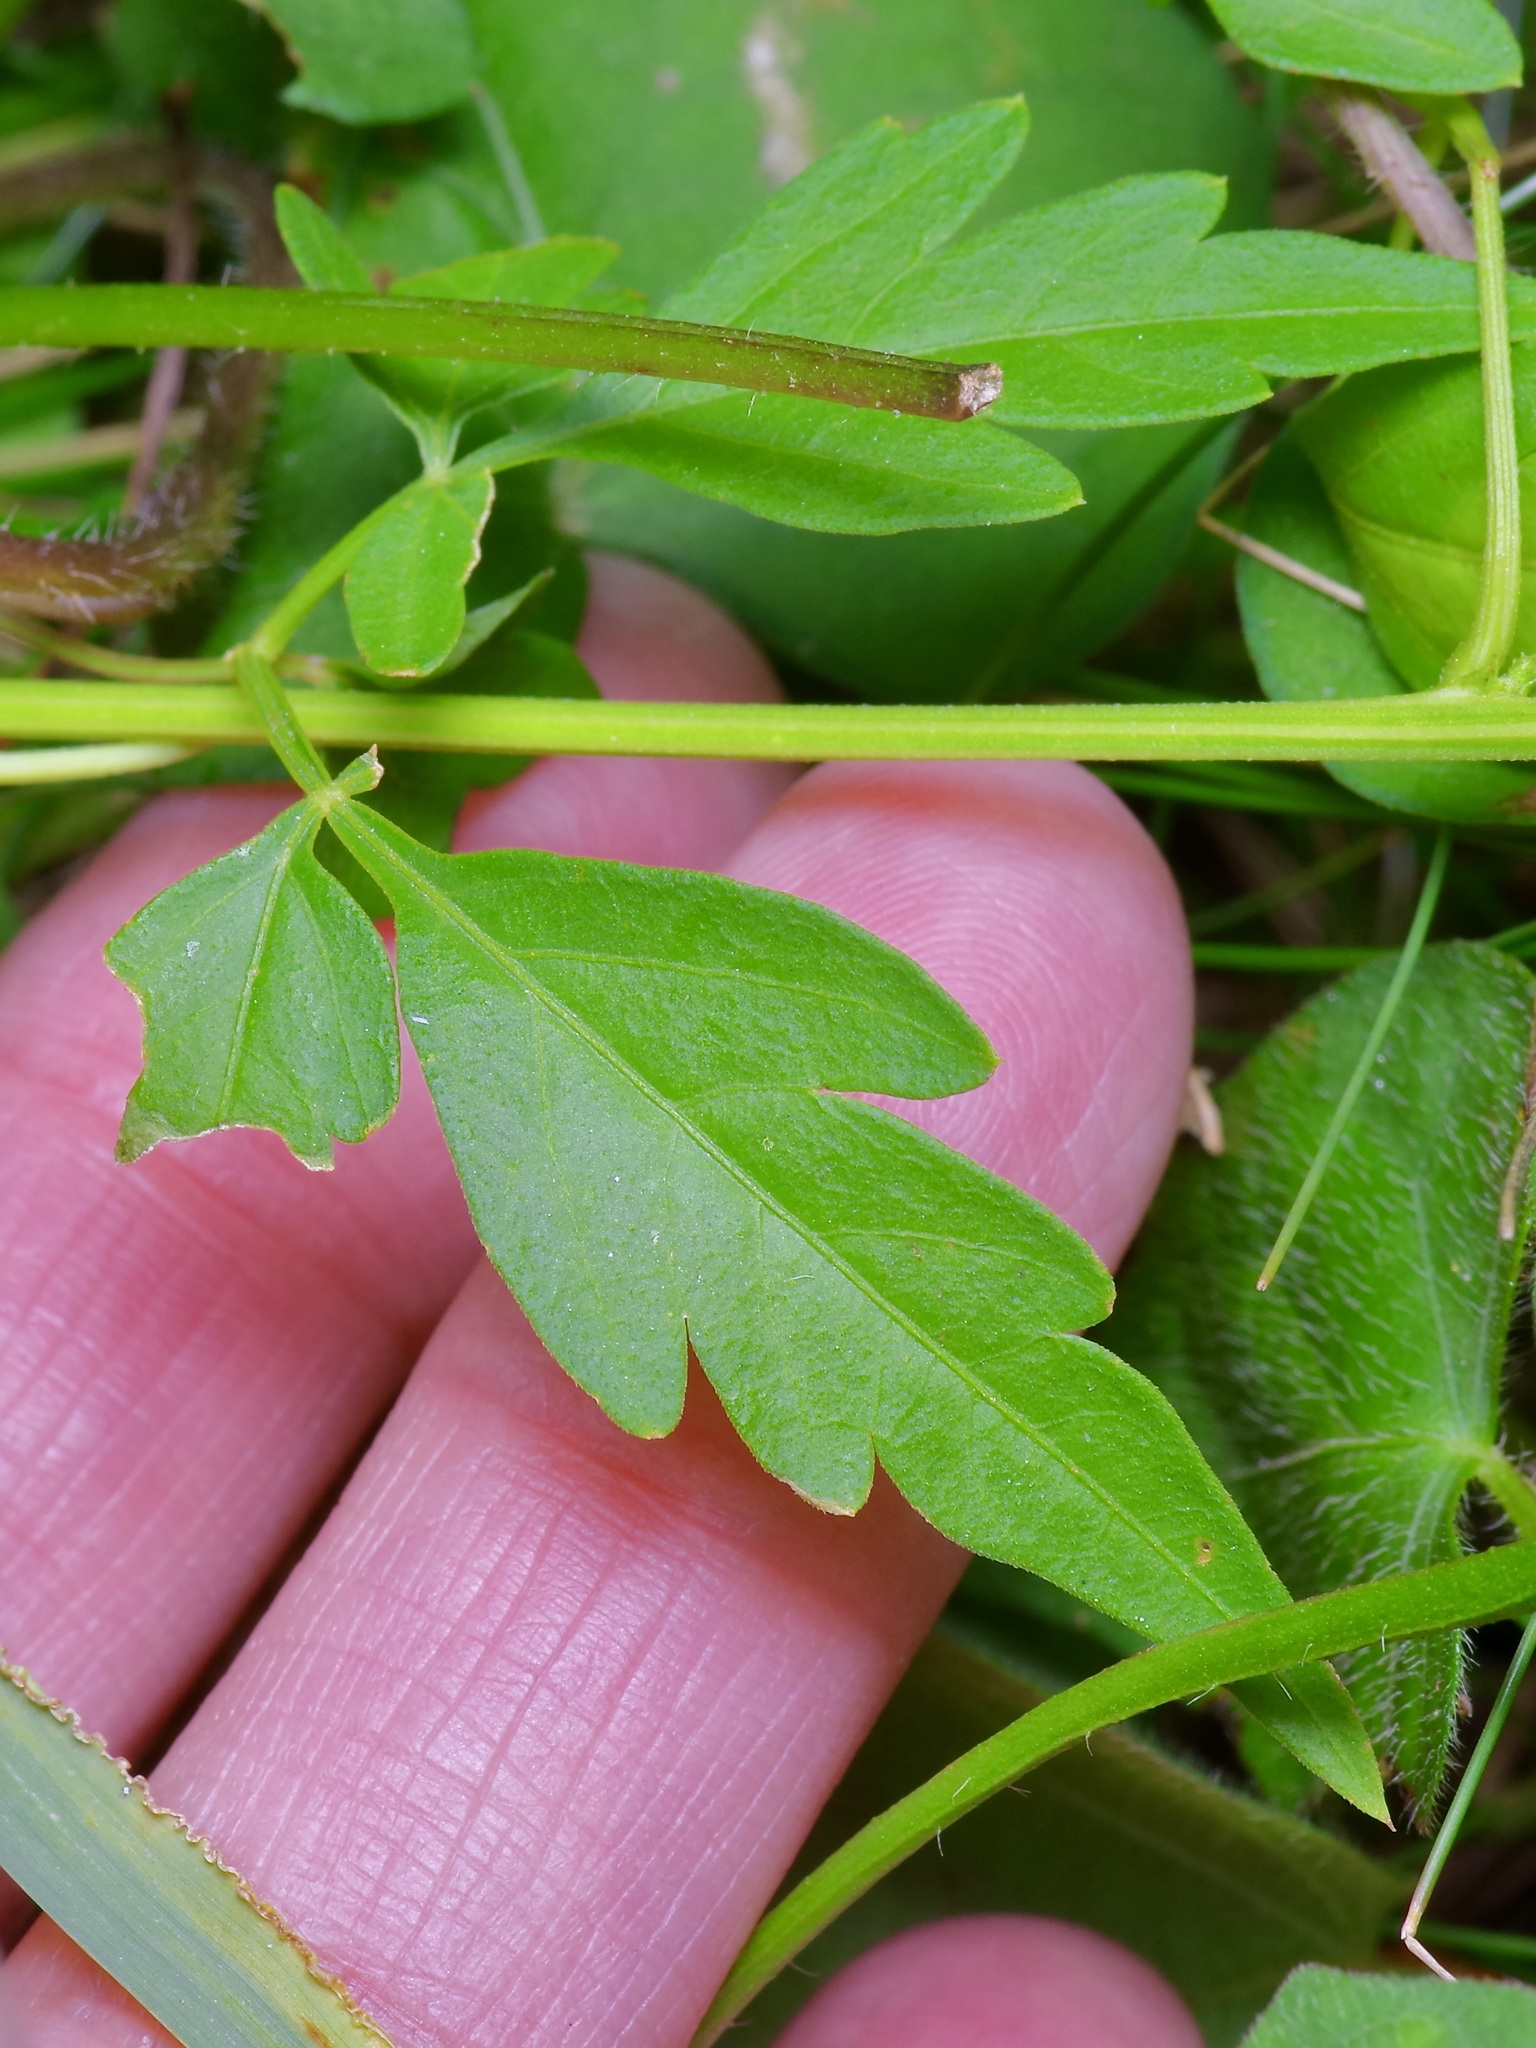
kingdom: Plantae
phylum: Tracheophyta
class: Magnoliopsida
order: Sapindales
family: Sapindaceae
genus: Cardiospermum
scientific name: Cardiospermum halicacabum
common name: Balloon vine
